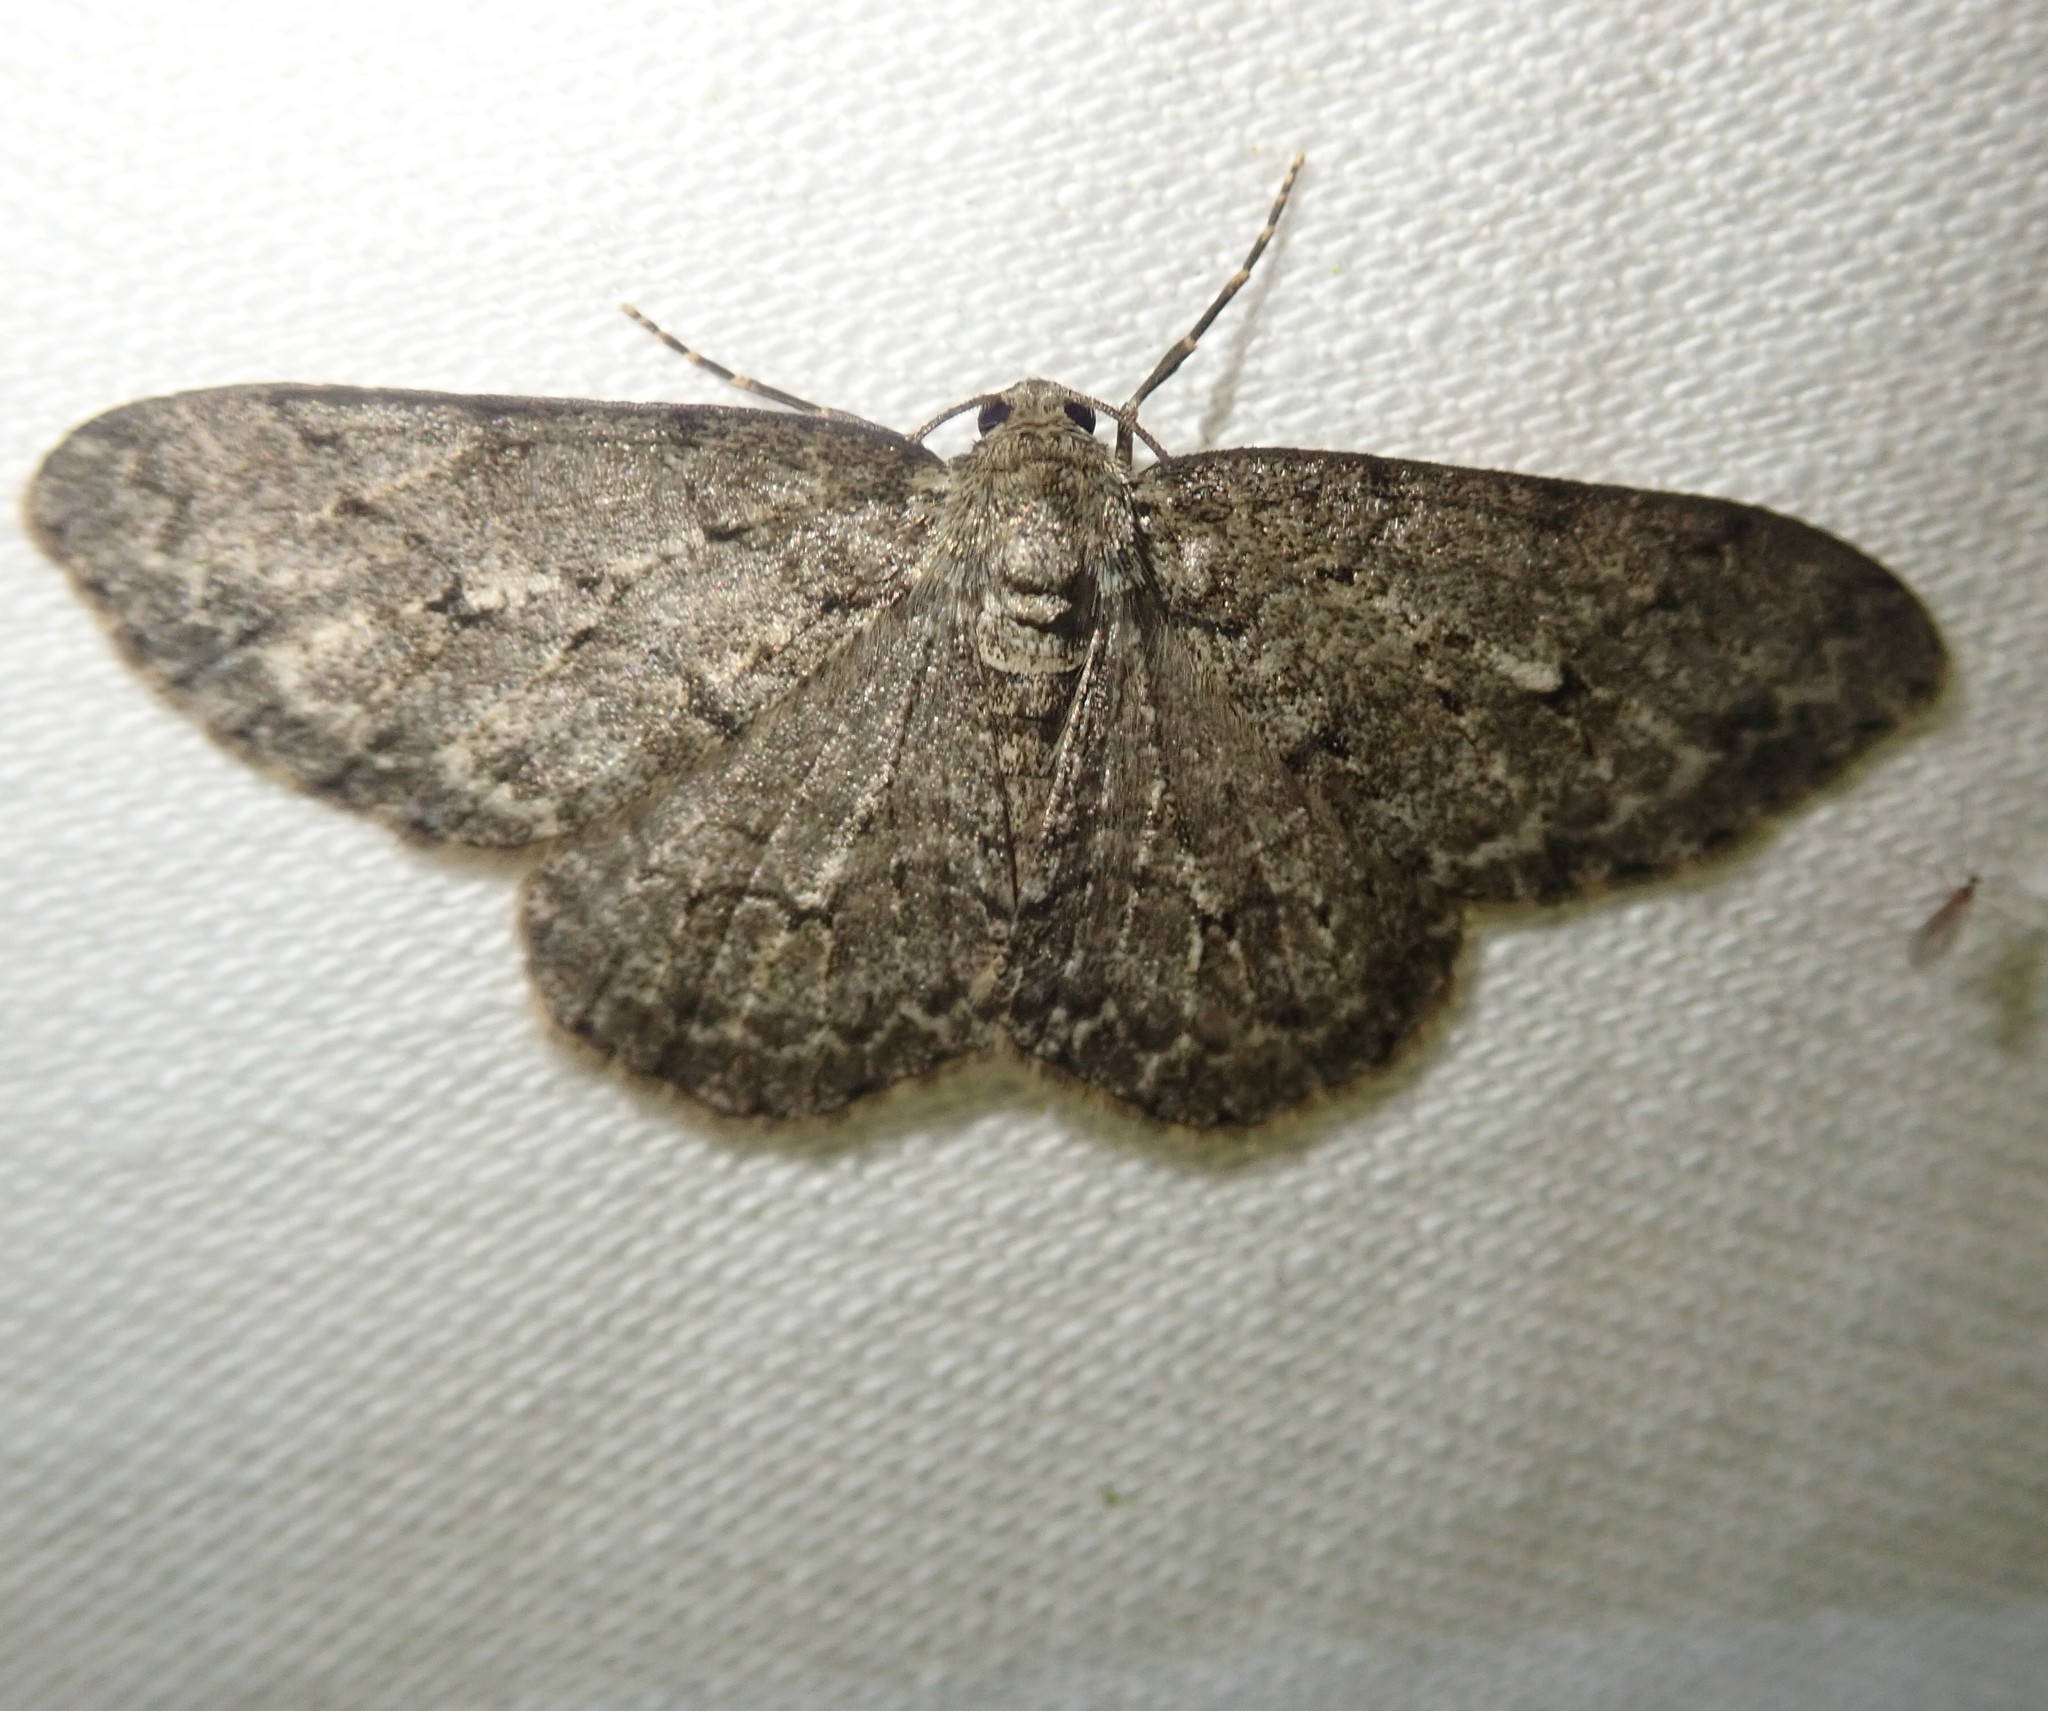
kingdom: Animalia
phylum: Arthropoda
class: Insecta
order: Lepidoptera
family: Geometridae
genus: Ectropis
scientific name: Ectropis crepuscularia
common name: Engrailed
